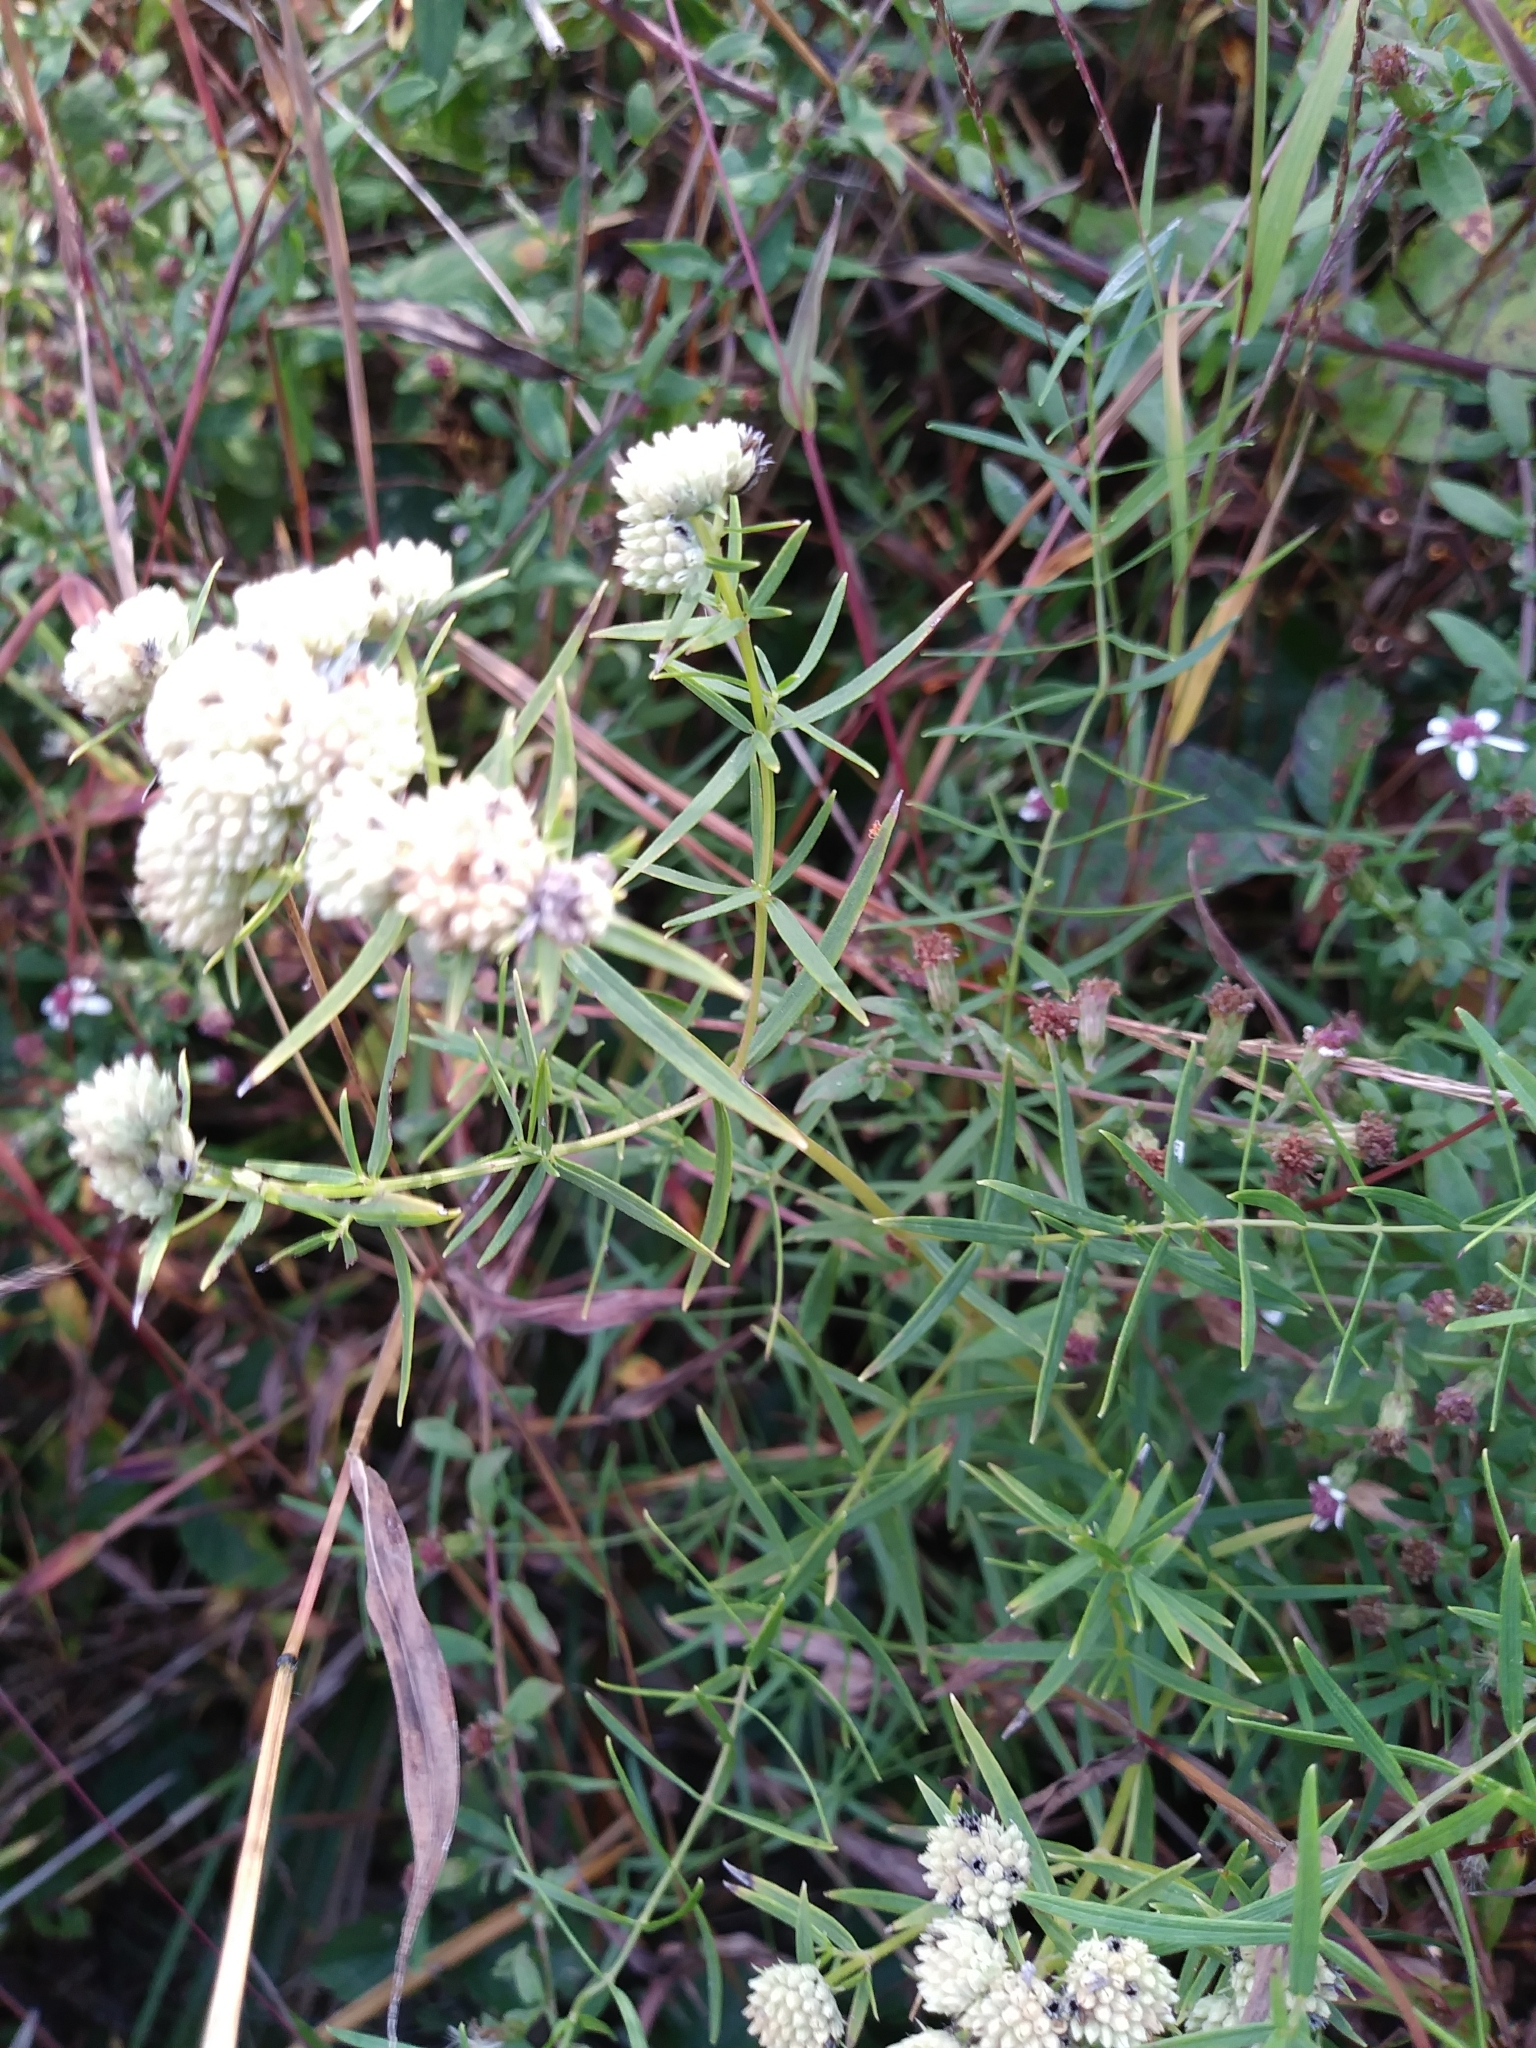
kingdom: Plantae
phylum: Tracheophyta
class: Magnoliopsida
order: Lamiales
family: Lamiaceae
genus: Pycnanthemum
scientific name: Pycnanthemum tenuifolium
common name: Narrow-leaf mountain-mint
